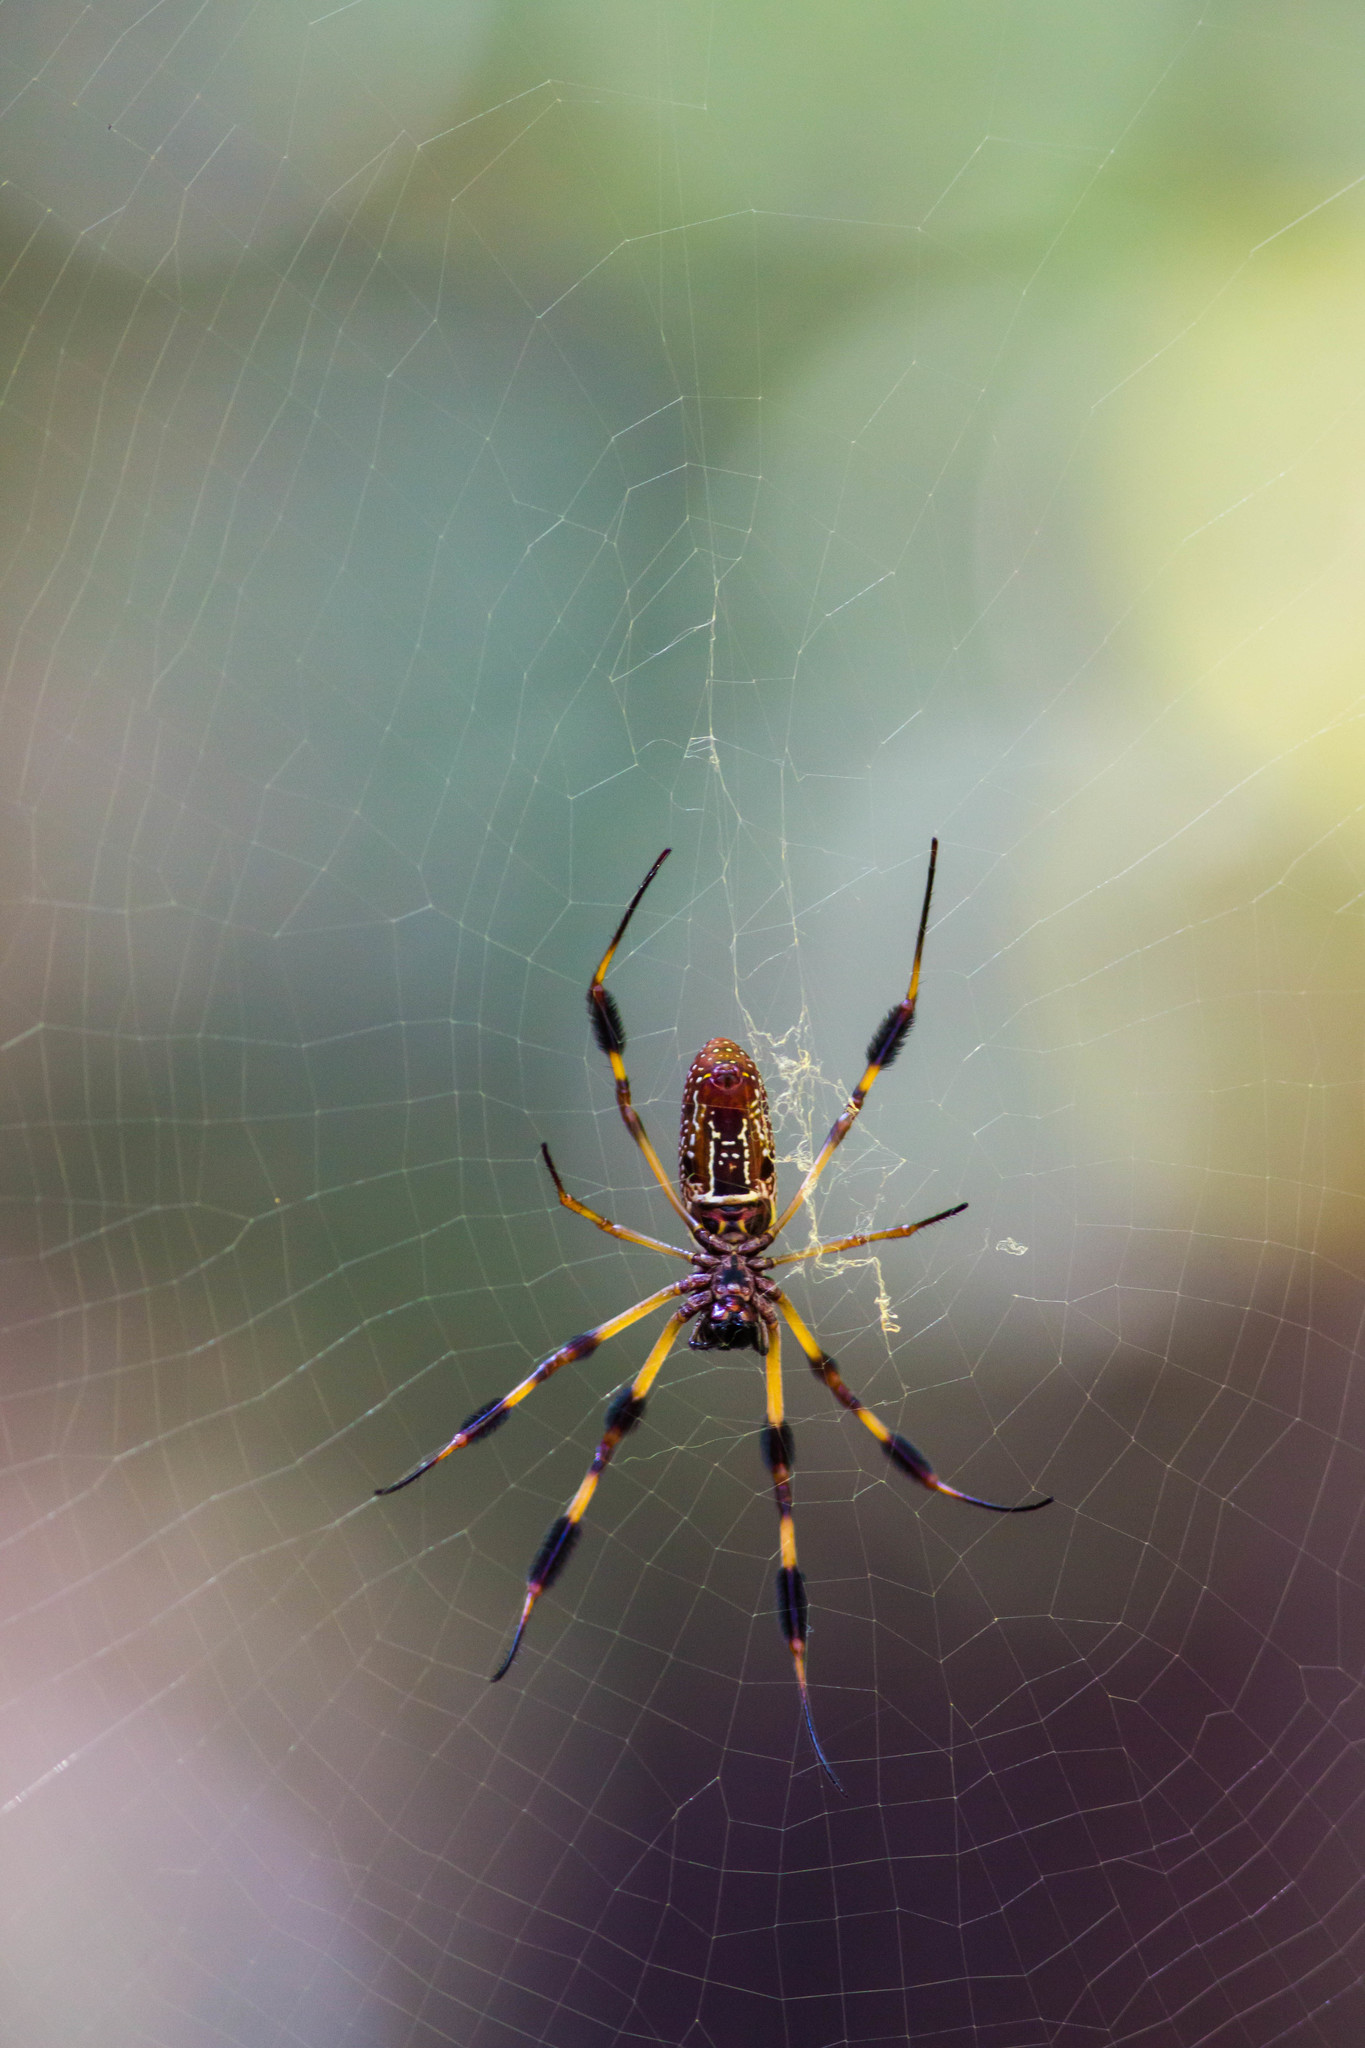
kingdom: Animalia
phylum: Arthropoda
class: Arachnida
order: Araneae
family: Araneidae
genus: Trichonephila
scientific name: Trichonephila clavipes
